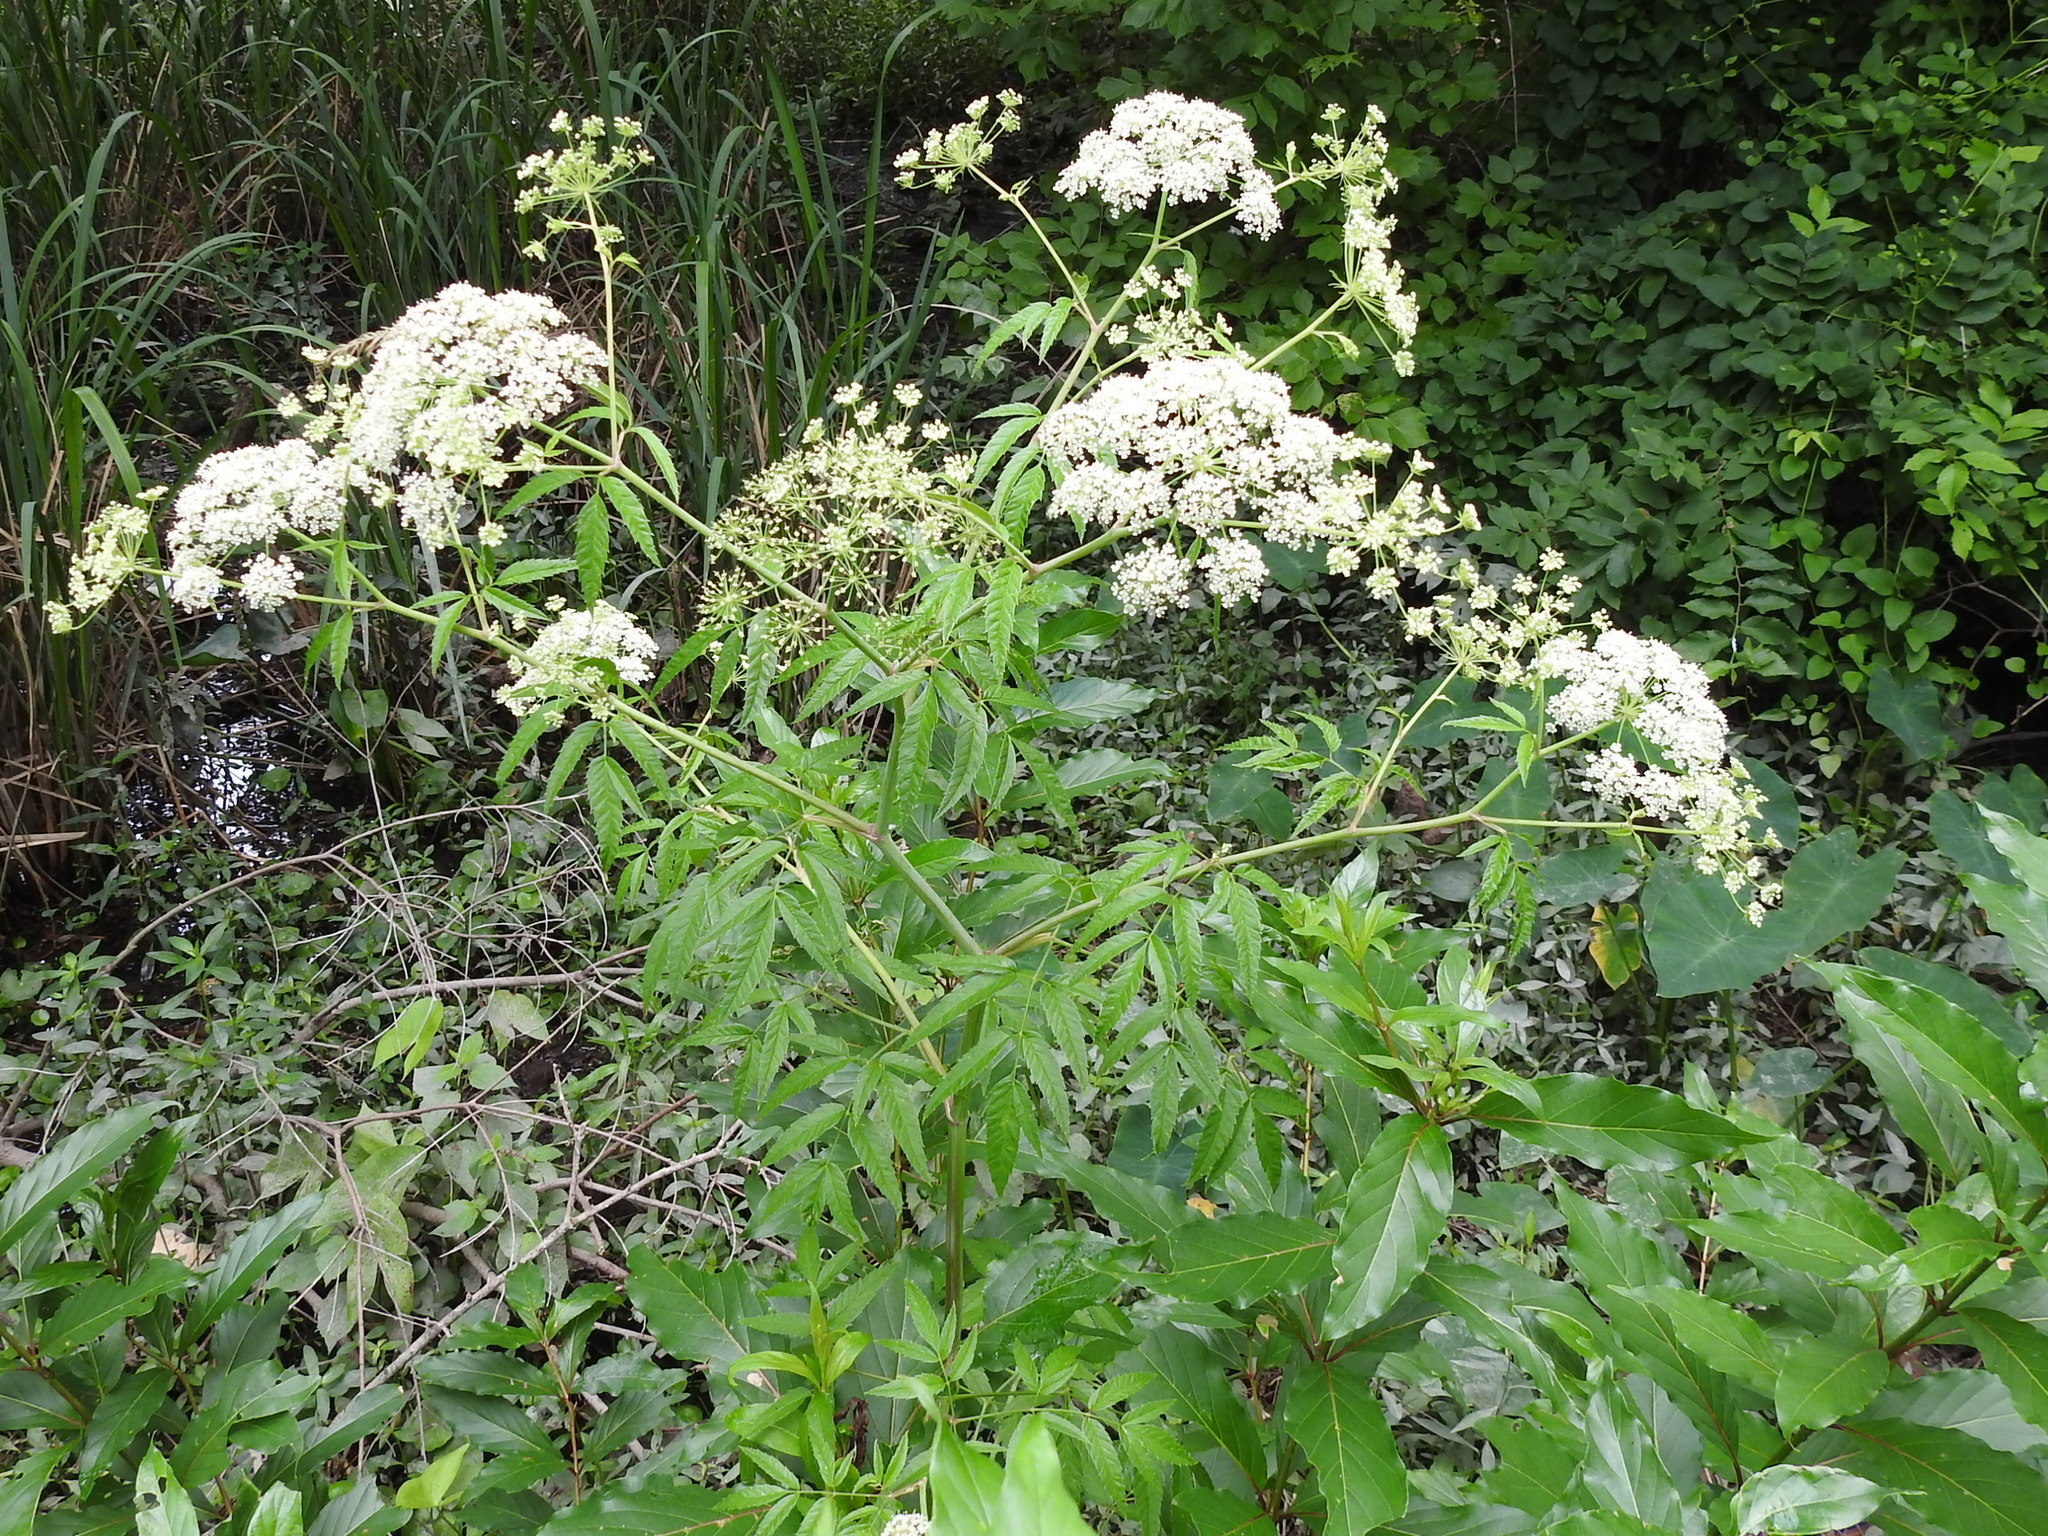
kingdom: Plantae
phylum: Tracheophyta
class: Magnoliopsida
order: Apiales
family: Apiaceae
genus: Cicuta
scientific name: Cicuta maculata
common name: Spotted cowbane
